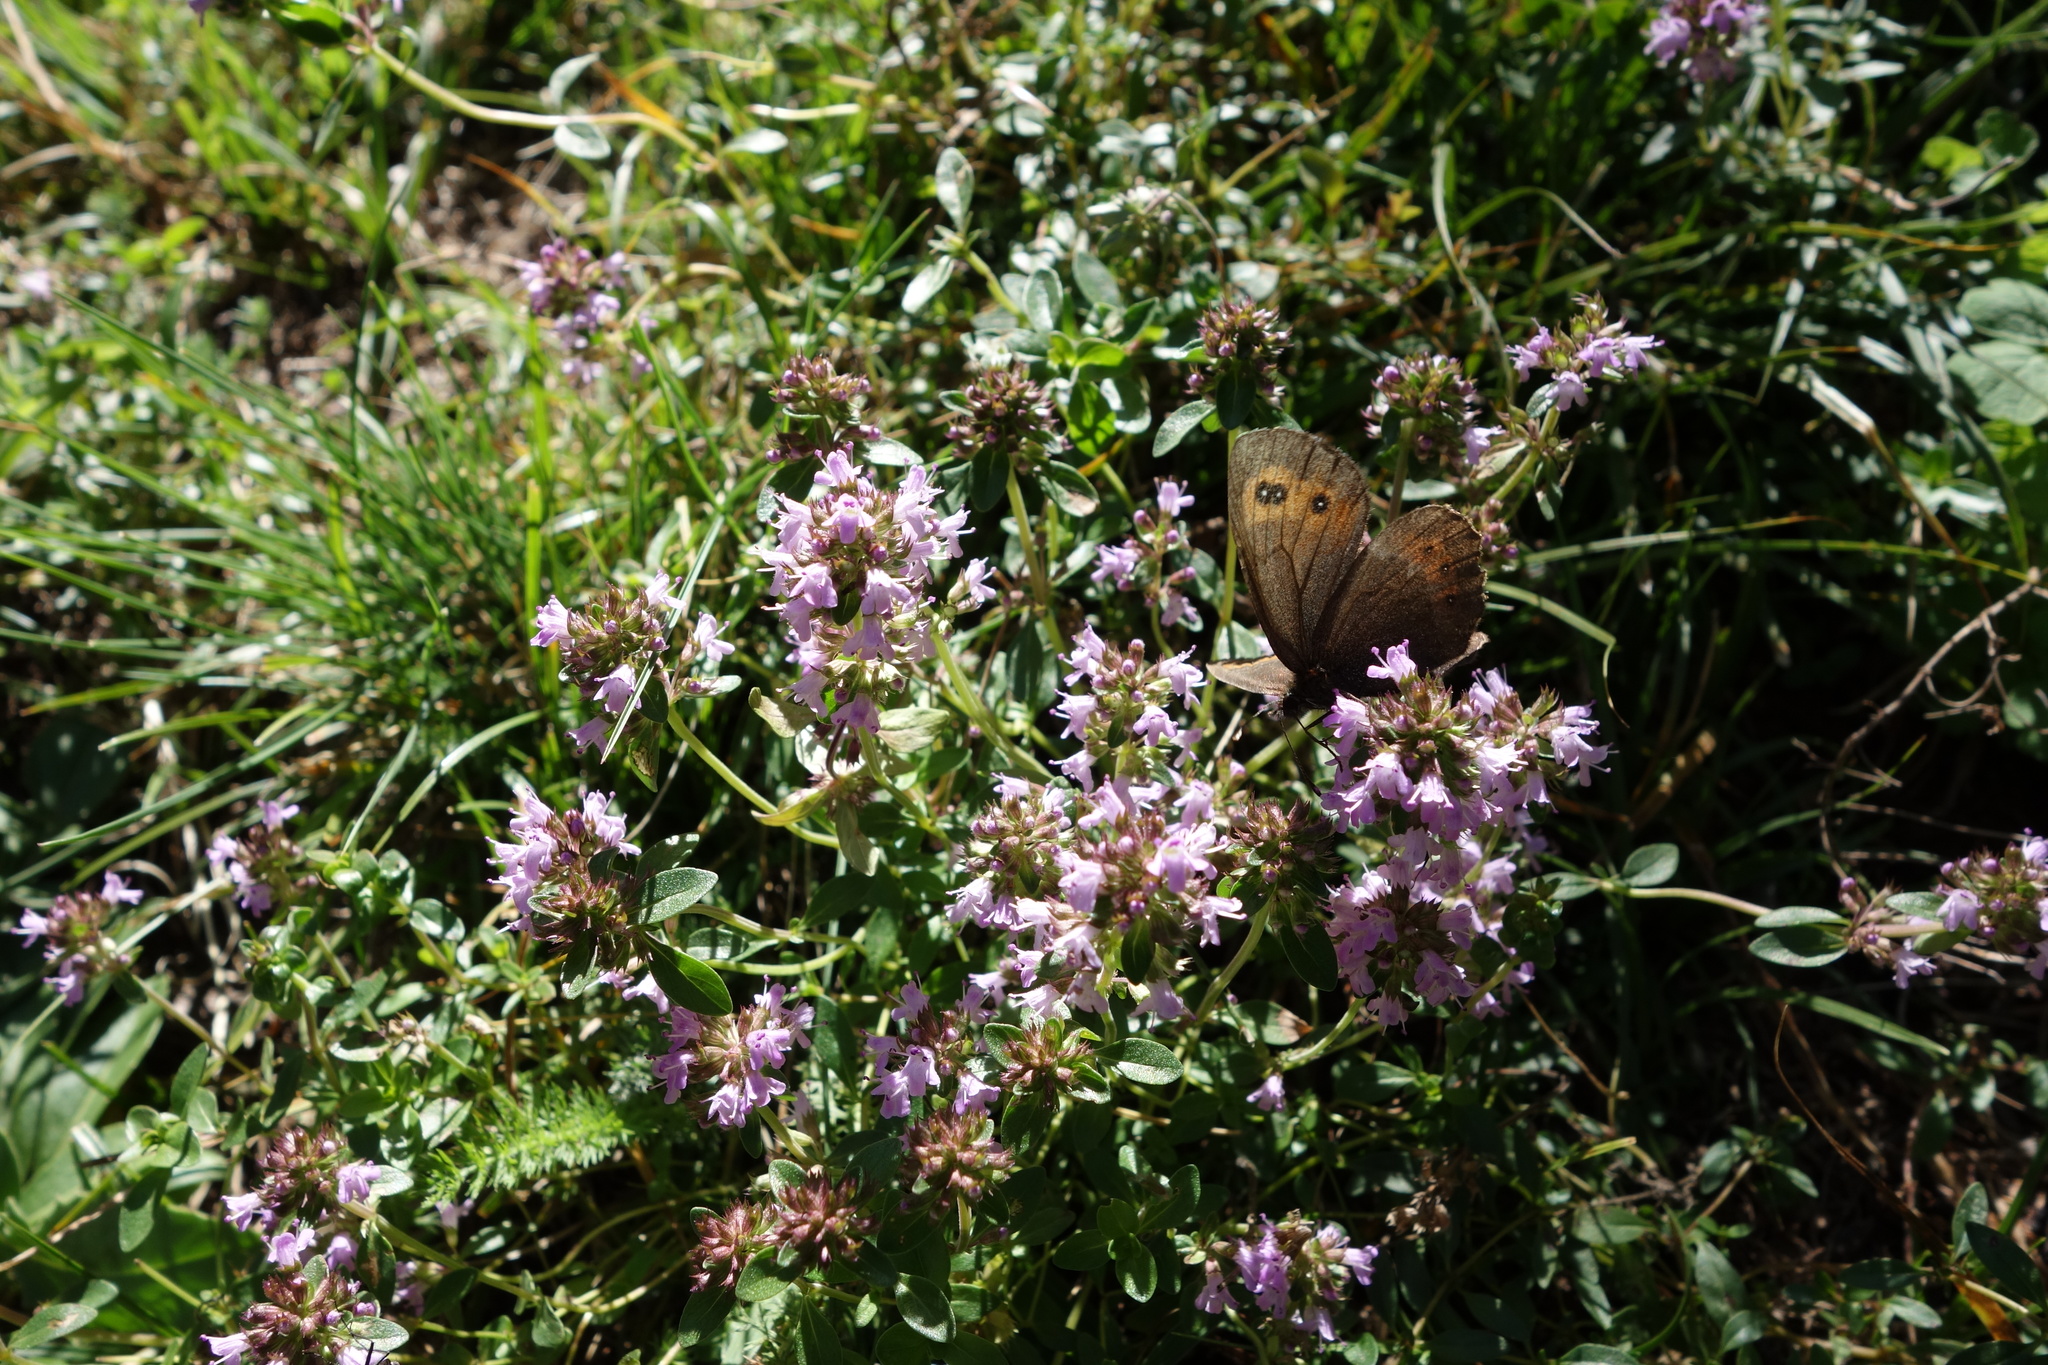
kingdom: Animalia
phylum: Arthropoda
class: Insecta
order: Lepidoptera
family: Nymphalidae
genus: Erebia
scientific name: Erebia euryale
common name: Large ringlet
